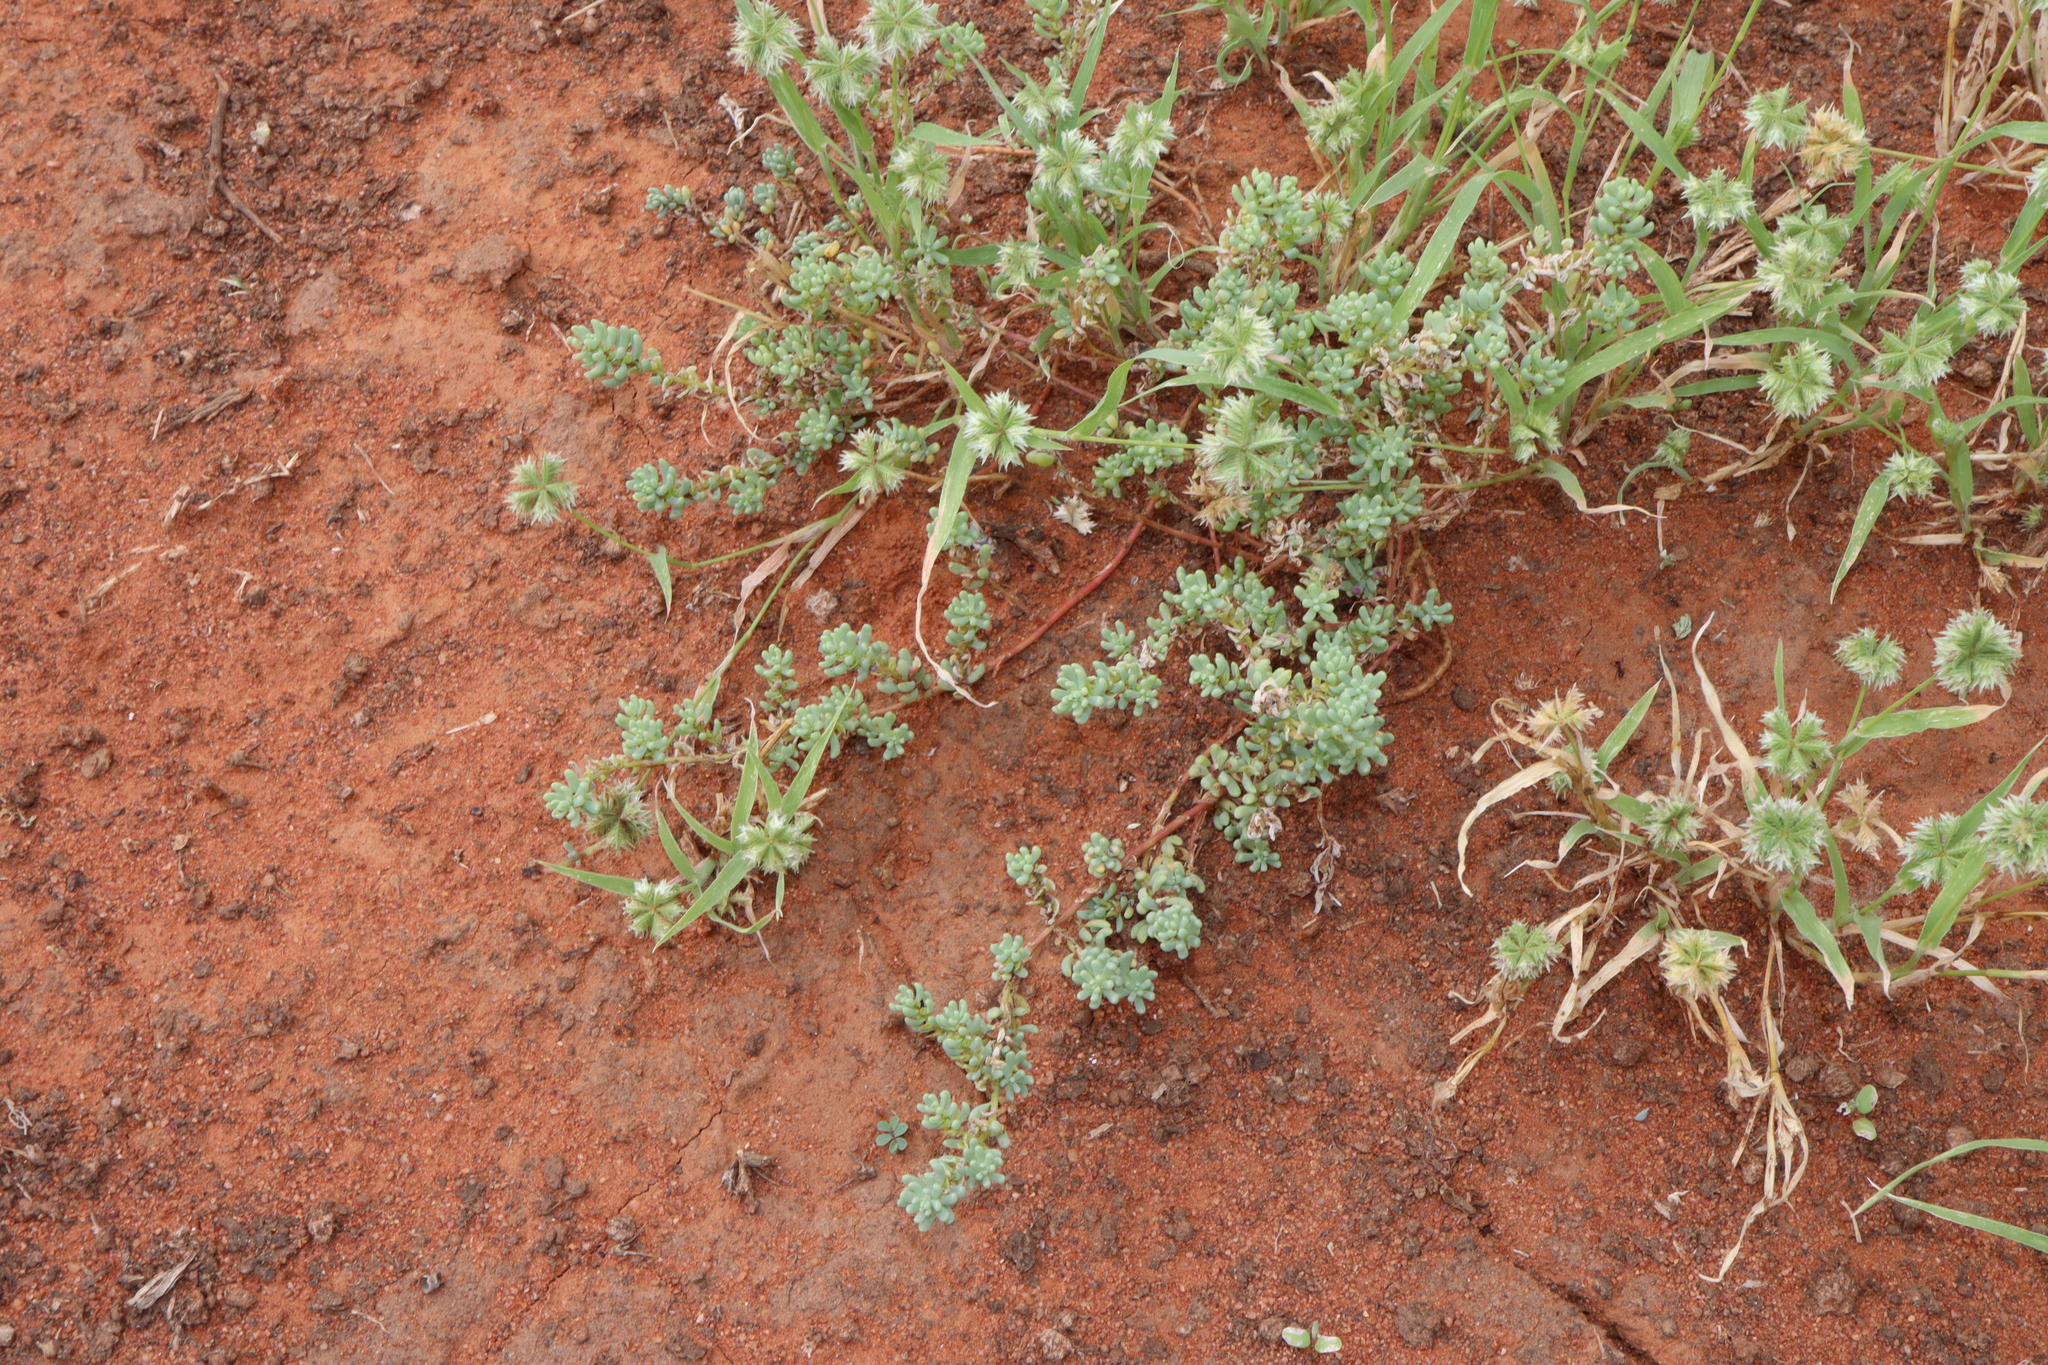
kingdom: Plantae
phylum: Tracheophyta
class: Liliopsida
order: Poales
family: Poaceae
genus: Dactyloctenium
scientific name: Dactyloctenium radulans
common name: Button-grass
